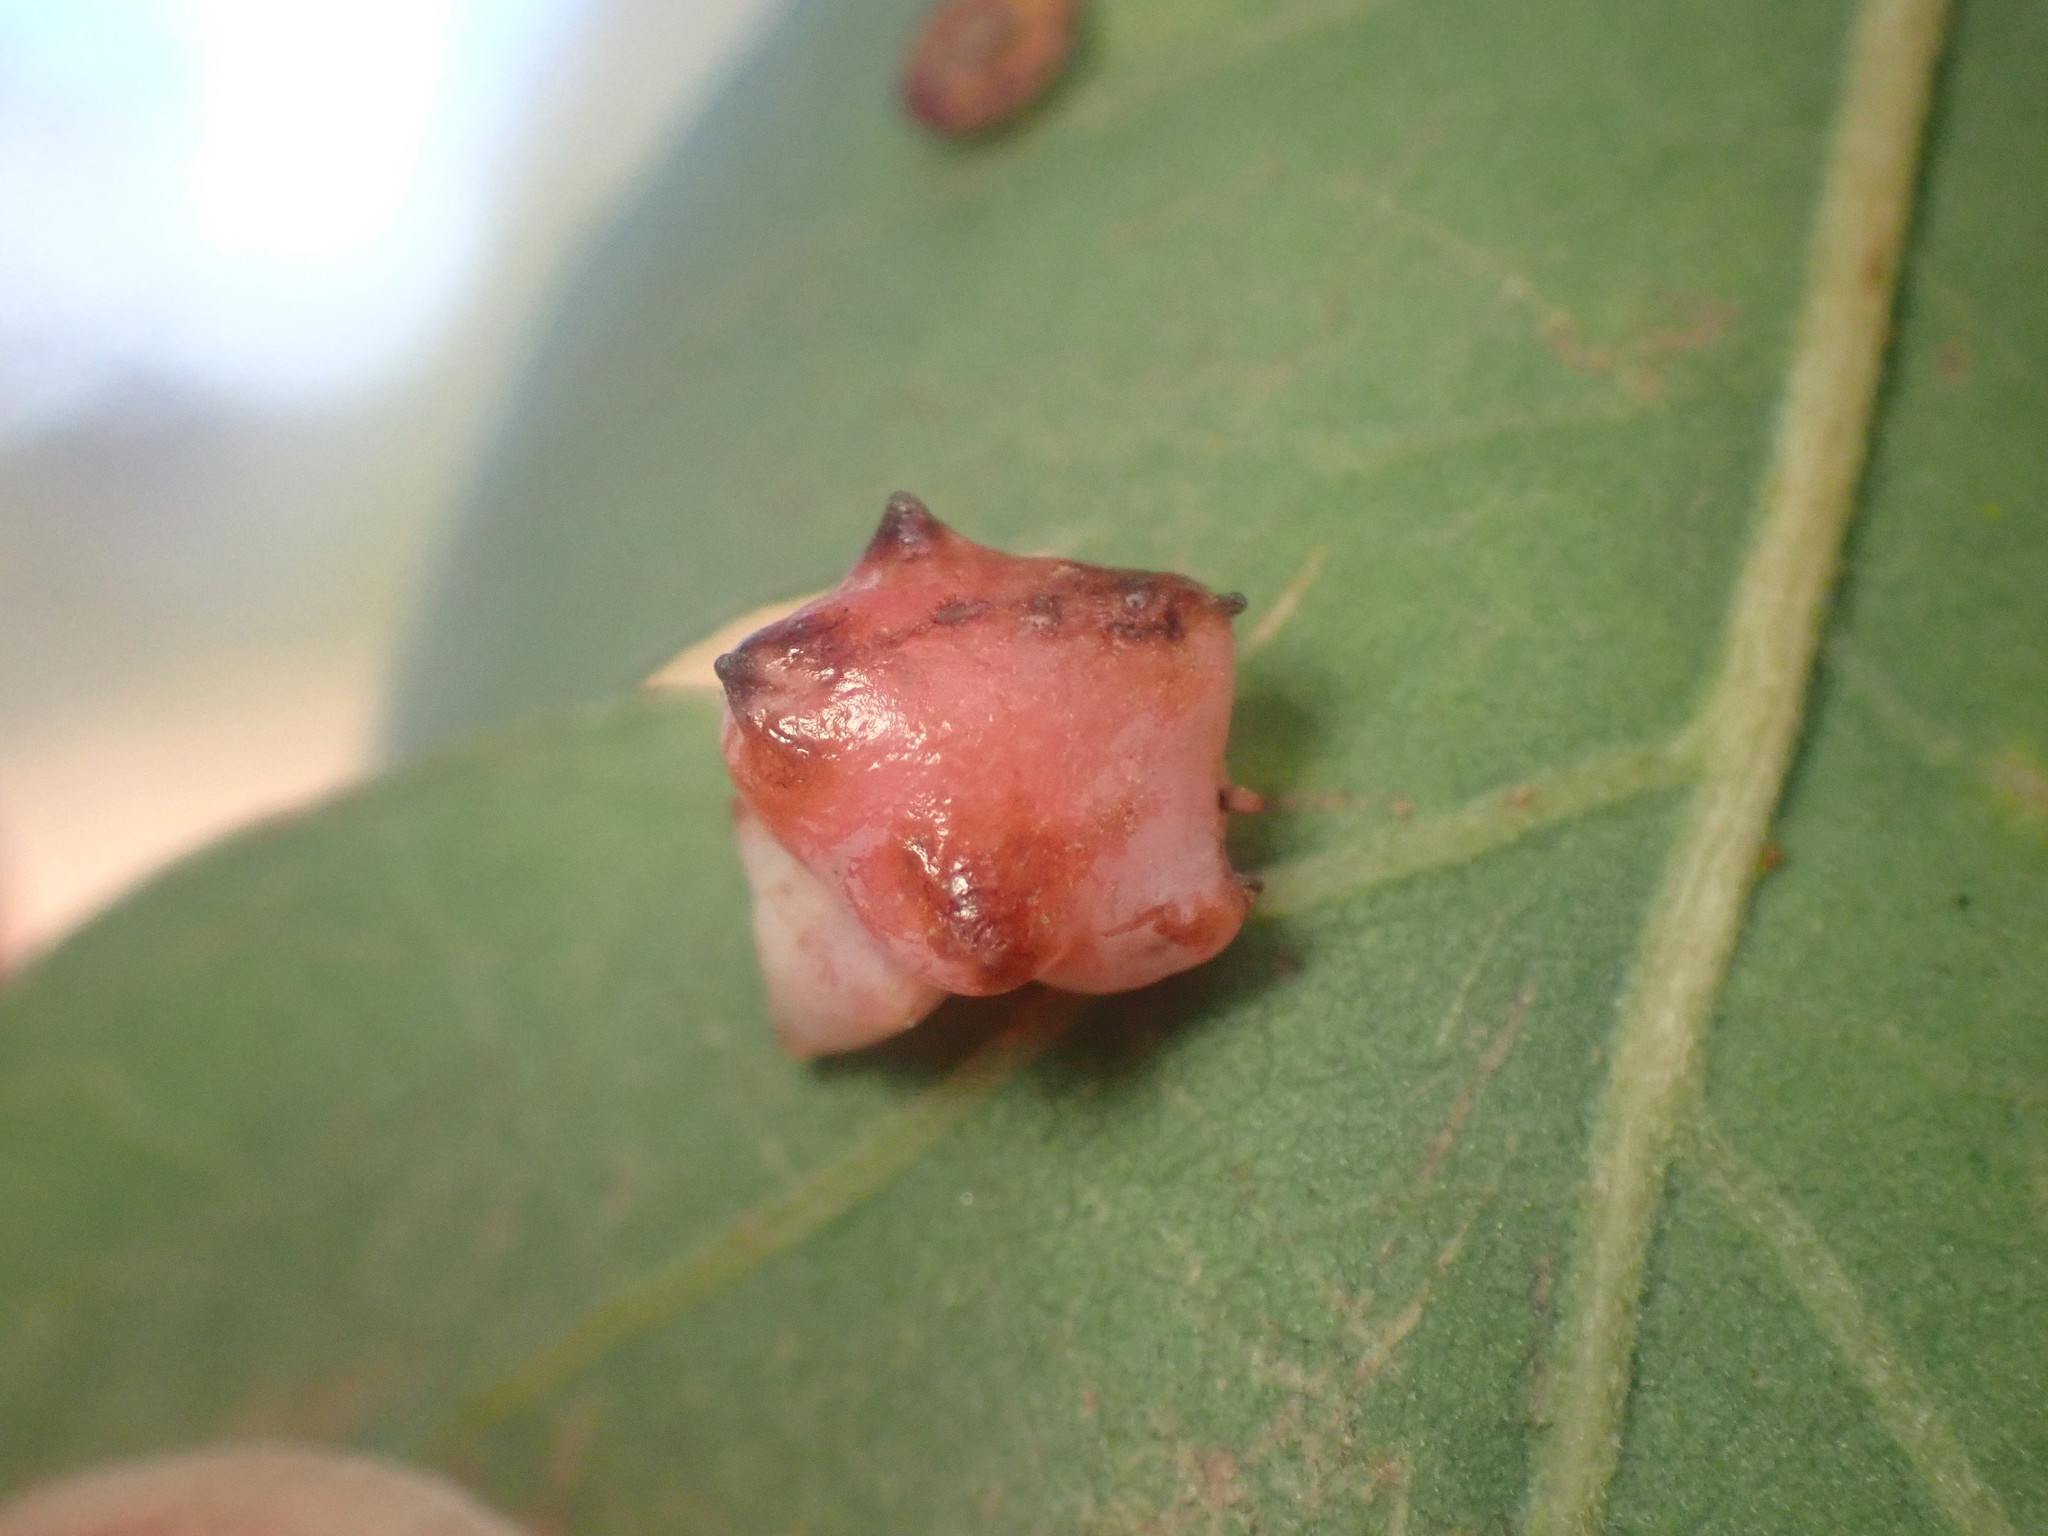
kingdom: Animalia
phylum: Arthropoda
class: Insecta
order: Hymenoptera
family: Cynipidae
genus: Cynips
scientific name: Cynips douglasi
